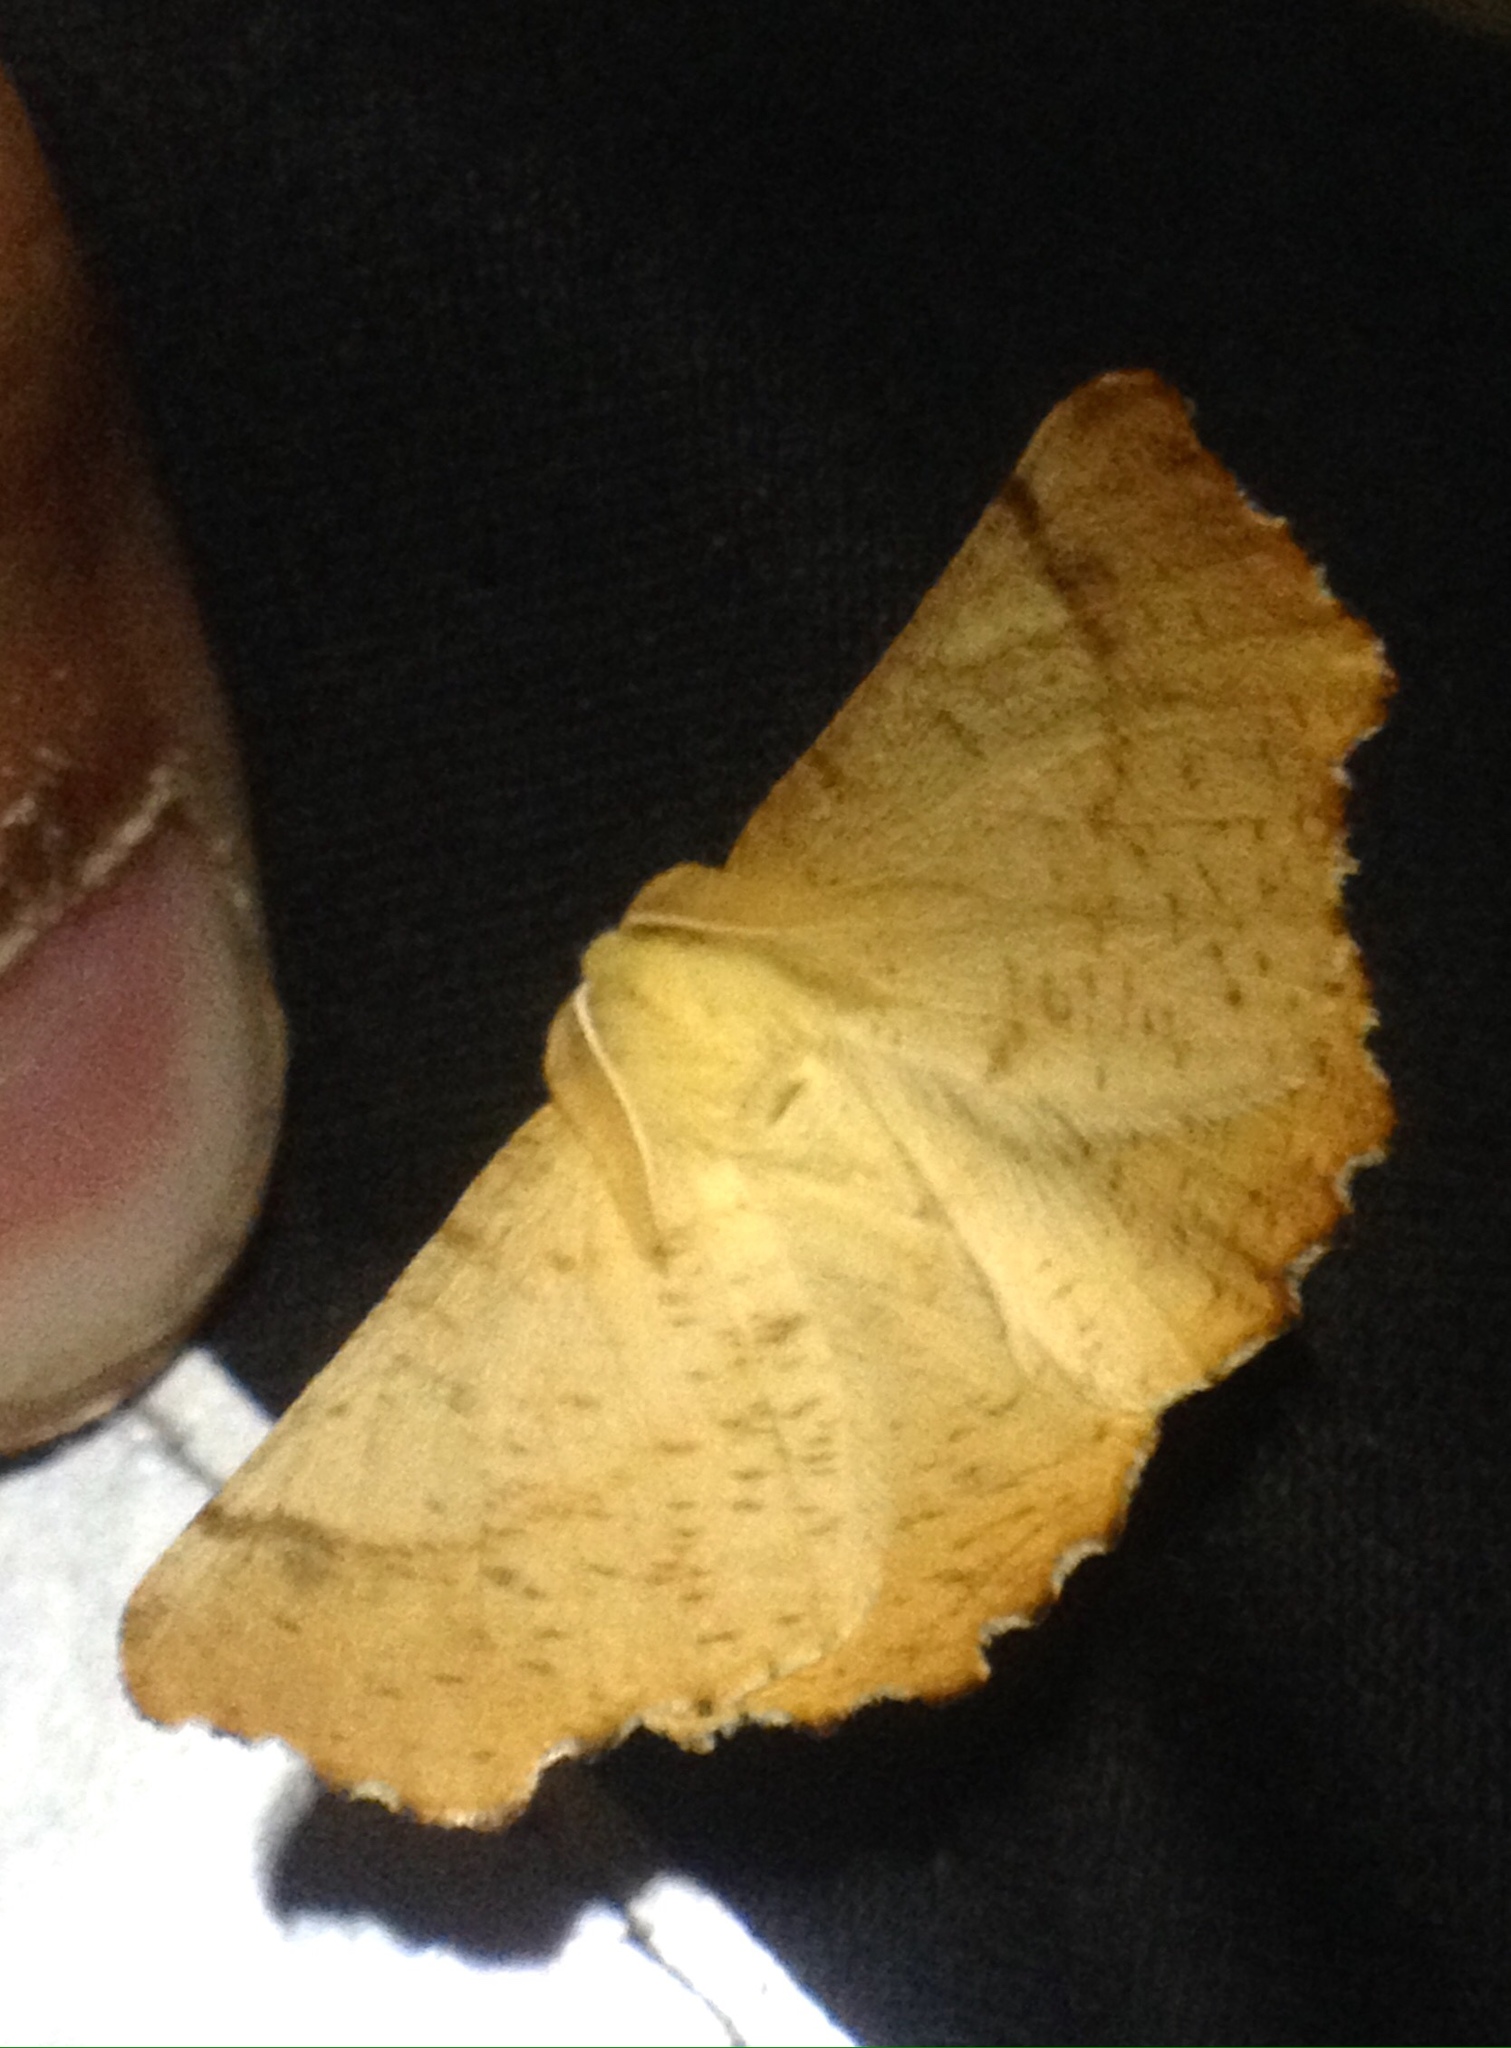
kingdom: Animalia
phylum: Arthropoda
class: Insecta
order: Lepidoptera
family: Geometridae
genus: Ennomos
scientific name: Ennomos autumnaria
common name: Large thorn
